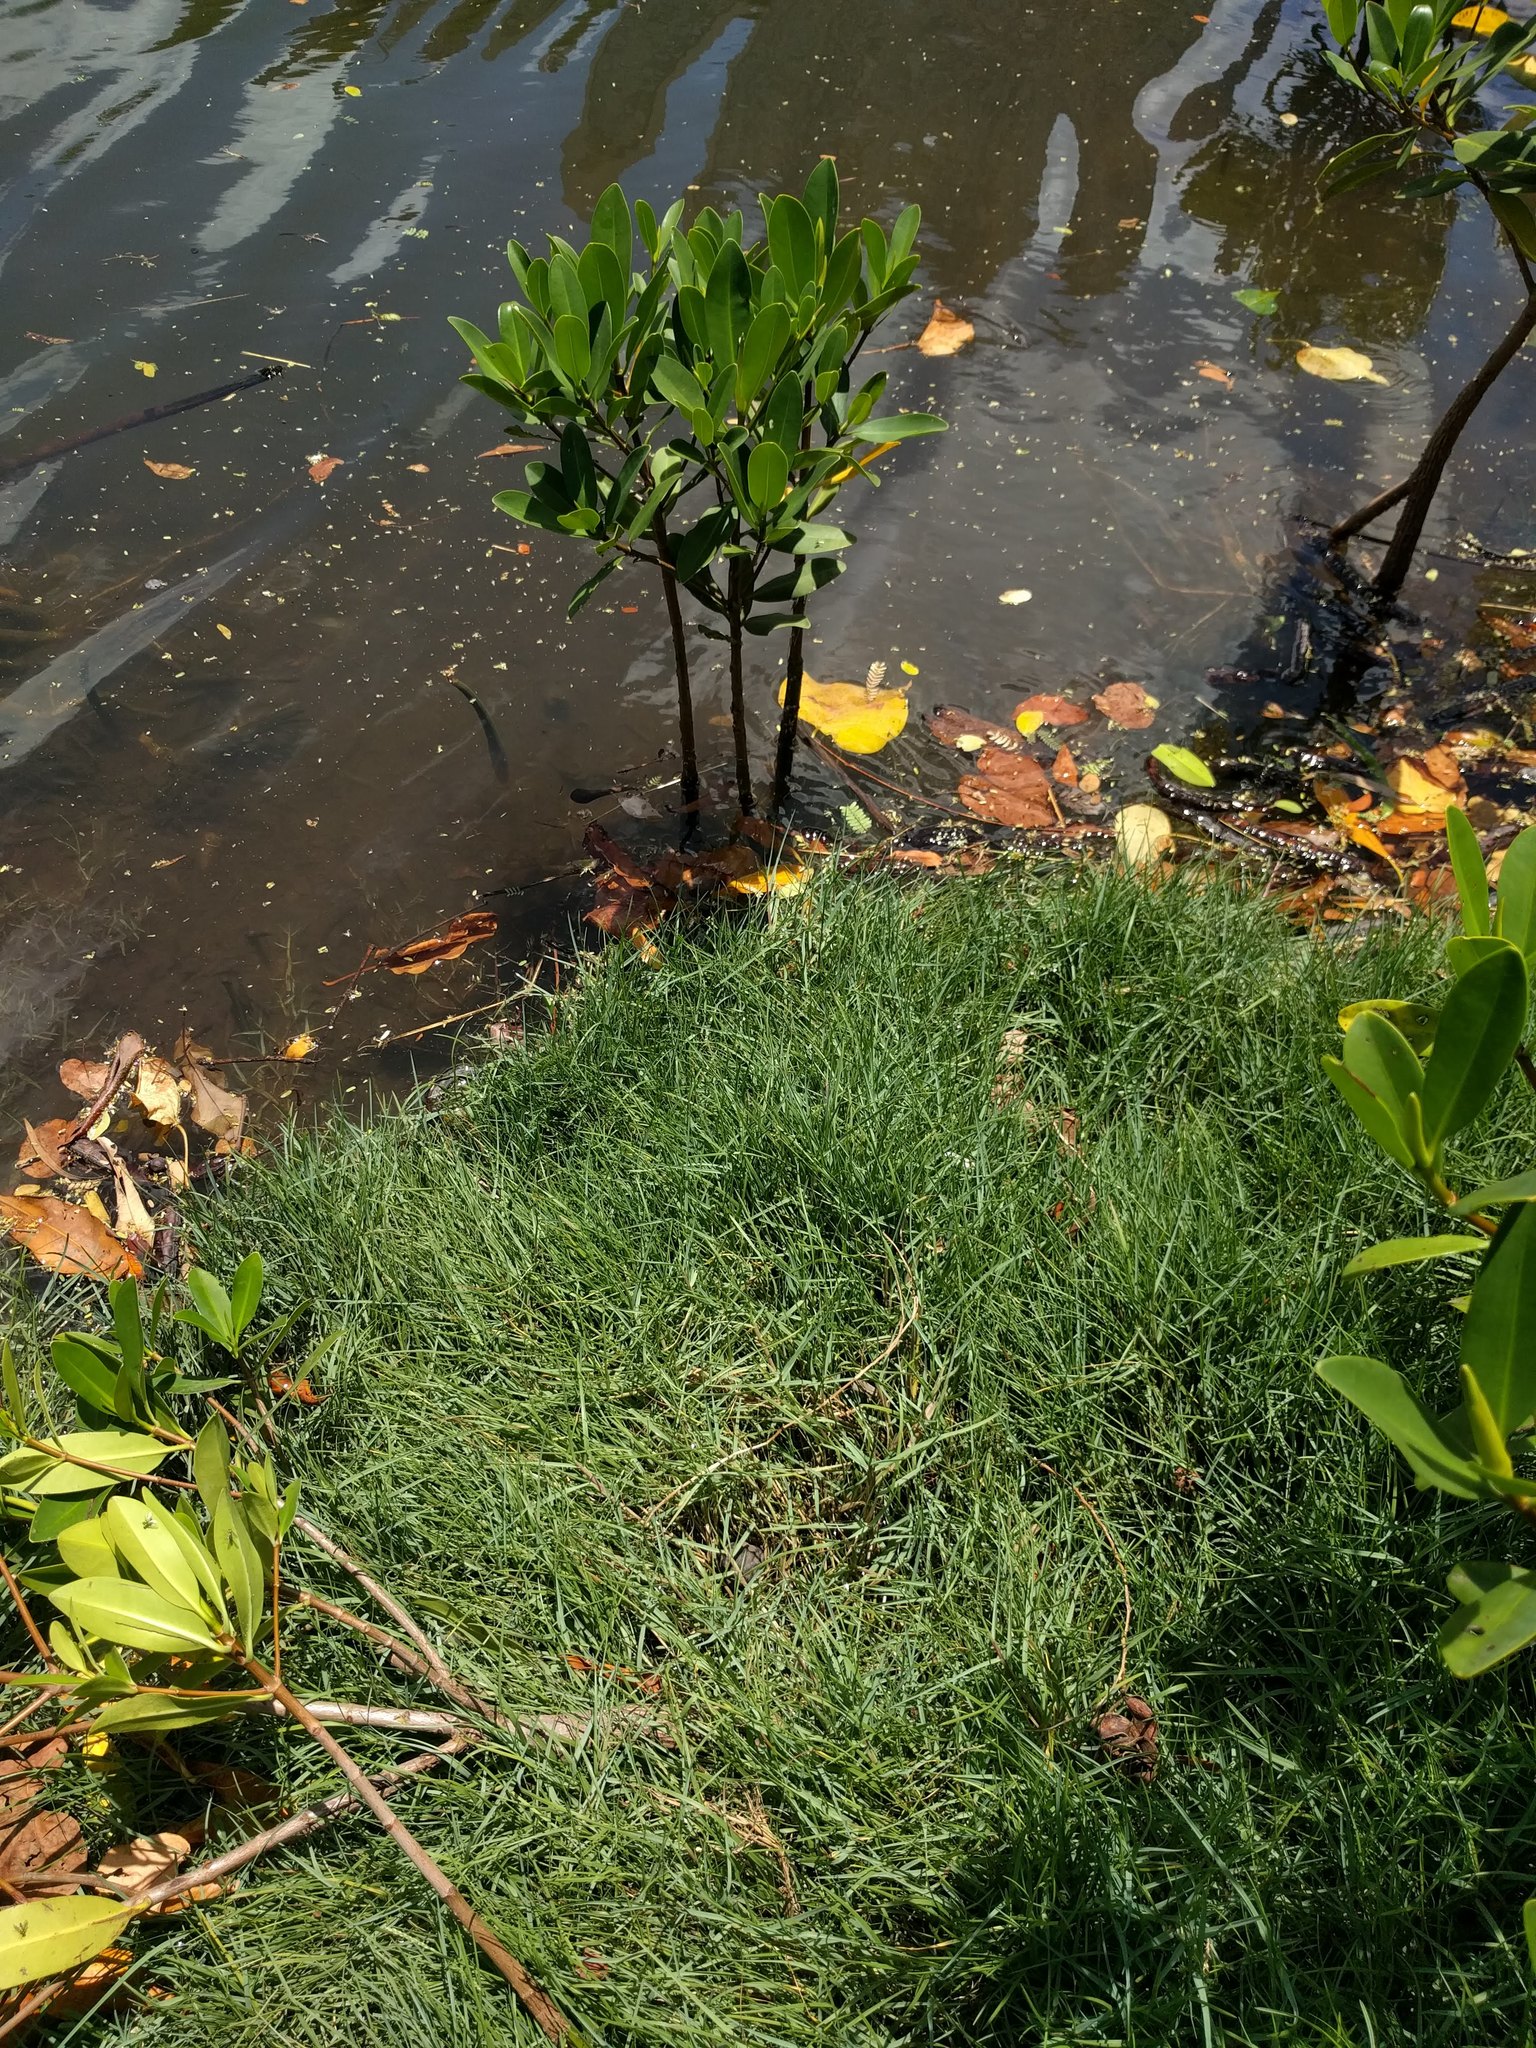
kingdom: Plantae
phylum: Tracheophyta
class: Magnoliopsida
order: Malpighiales
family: Rhizophoraceae
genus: Rhizophora
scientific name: Rhizophora mangle
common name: Red mangrove
